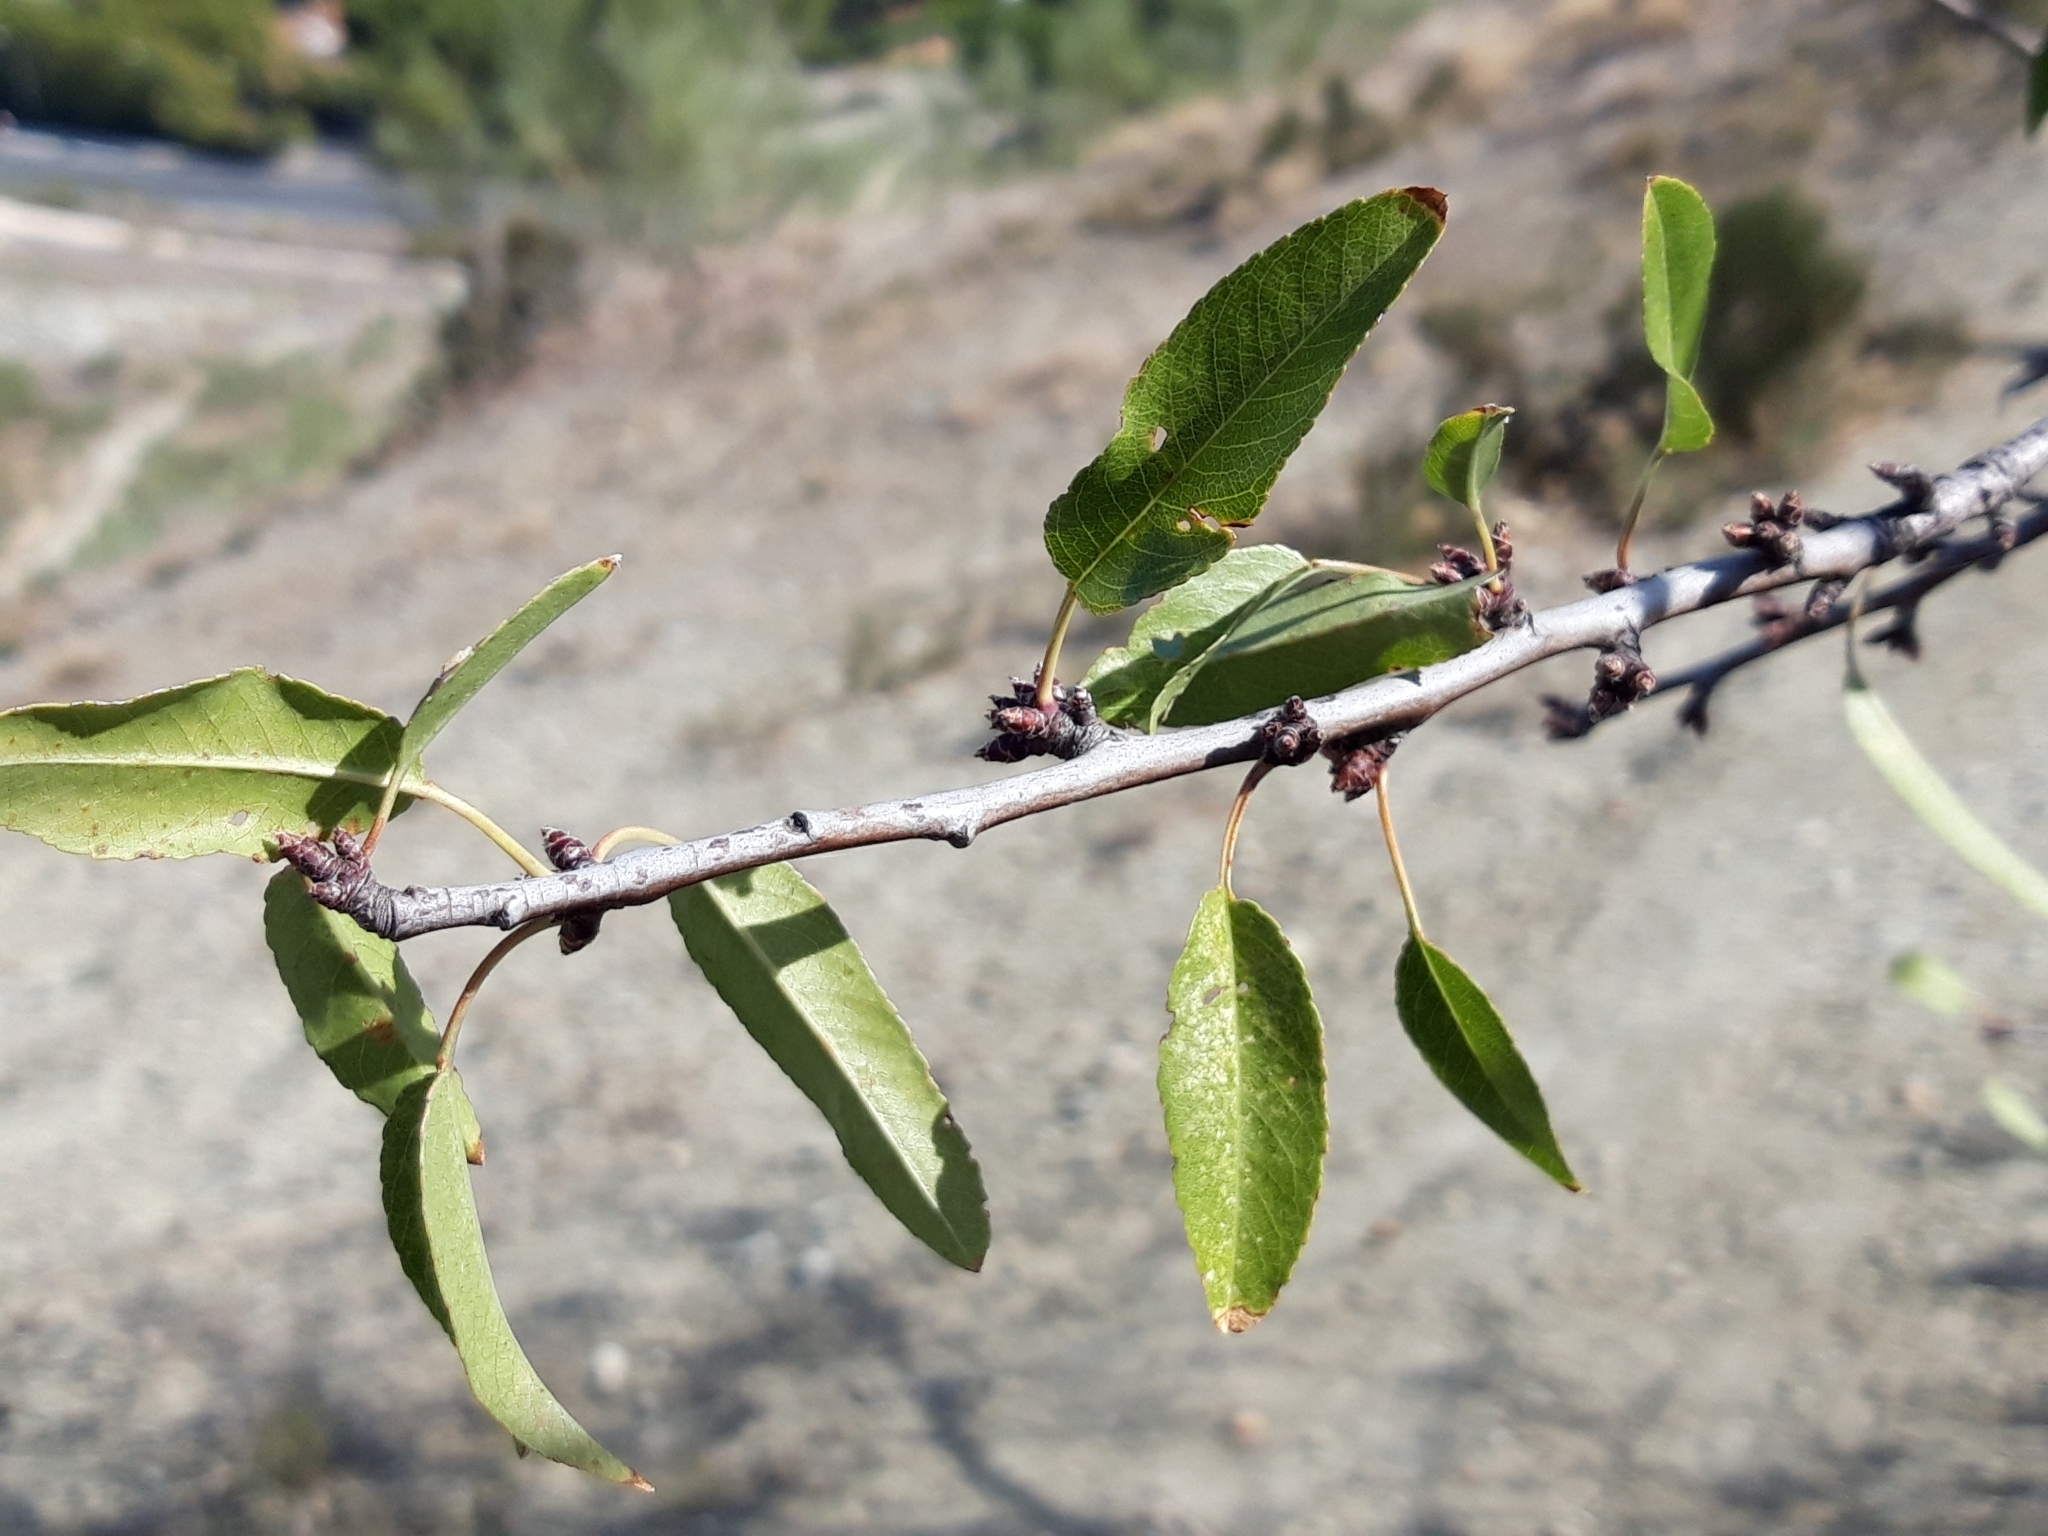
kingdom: Plantae
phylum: Tracheophyta
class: Magnoliopsida
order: Rosales
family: Rosaceae
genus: Prunus
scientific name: Prunus amygdalus
